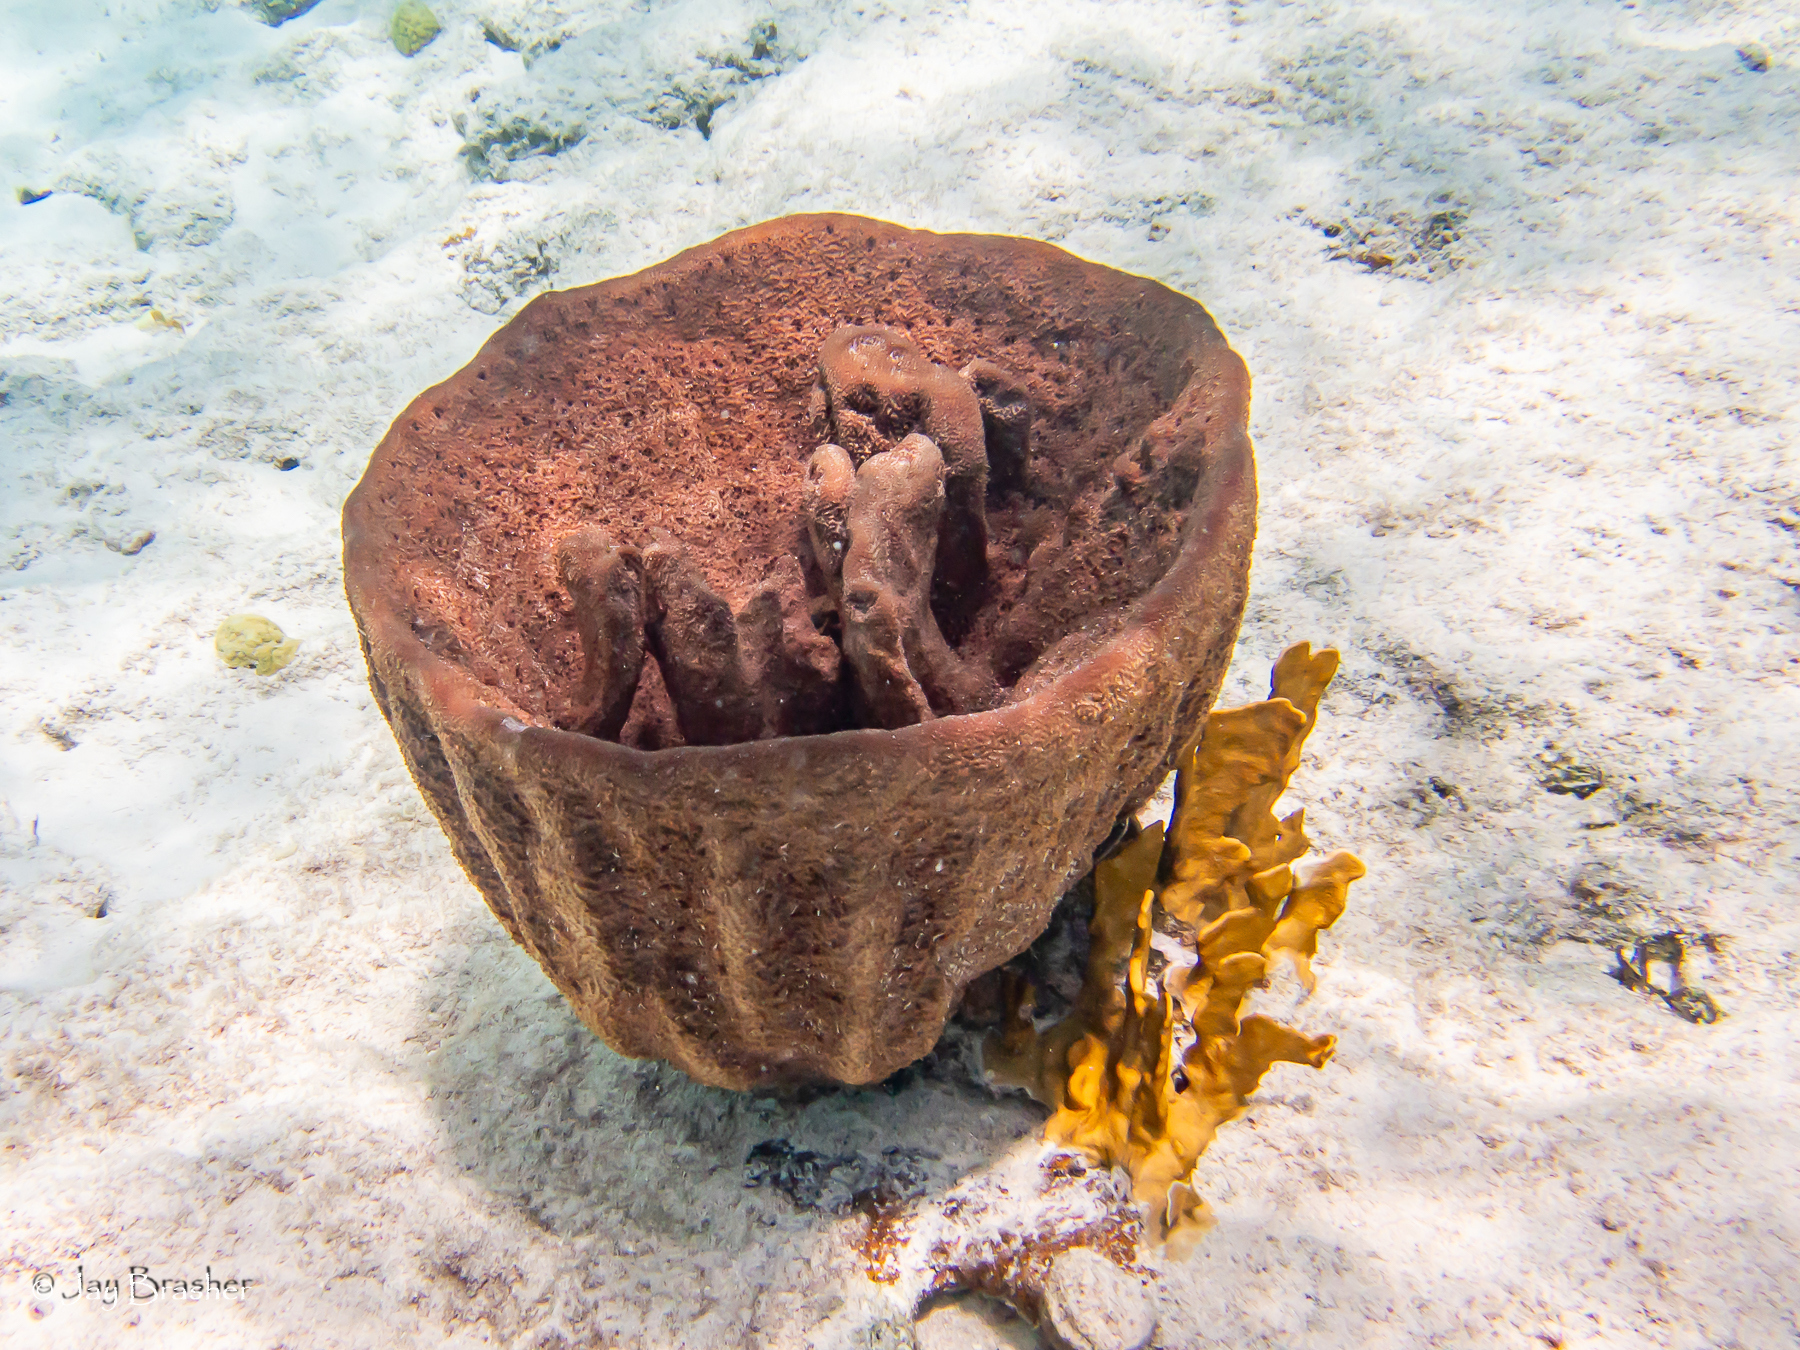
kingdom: Animalia
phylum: Porifera
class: Demospongiae
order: Dictyoceratida
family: Irciniidae
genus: Ircinia
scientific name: Ircinia campana
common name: Vase sponge
